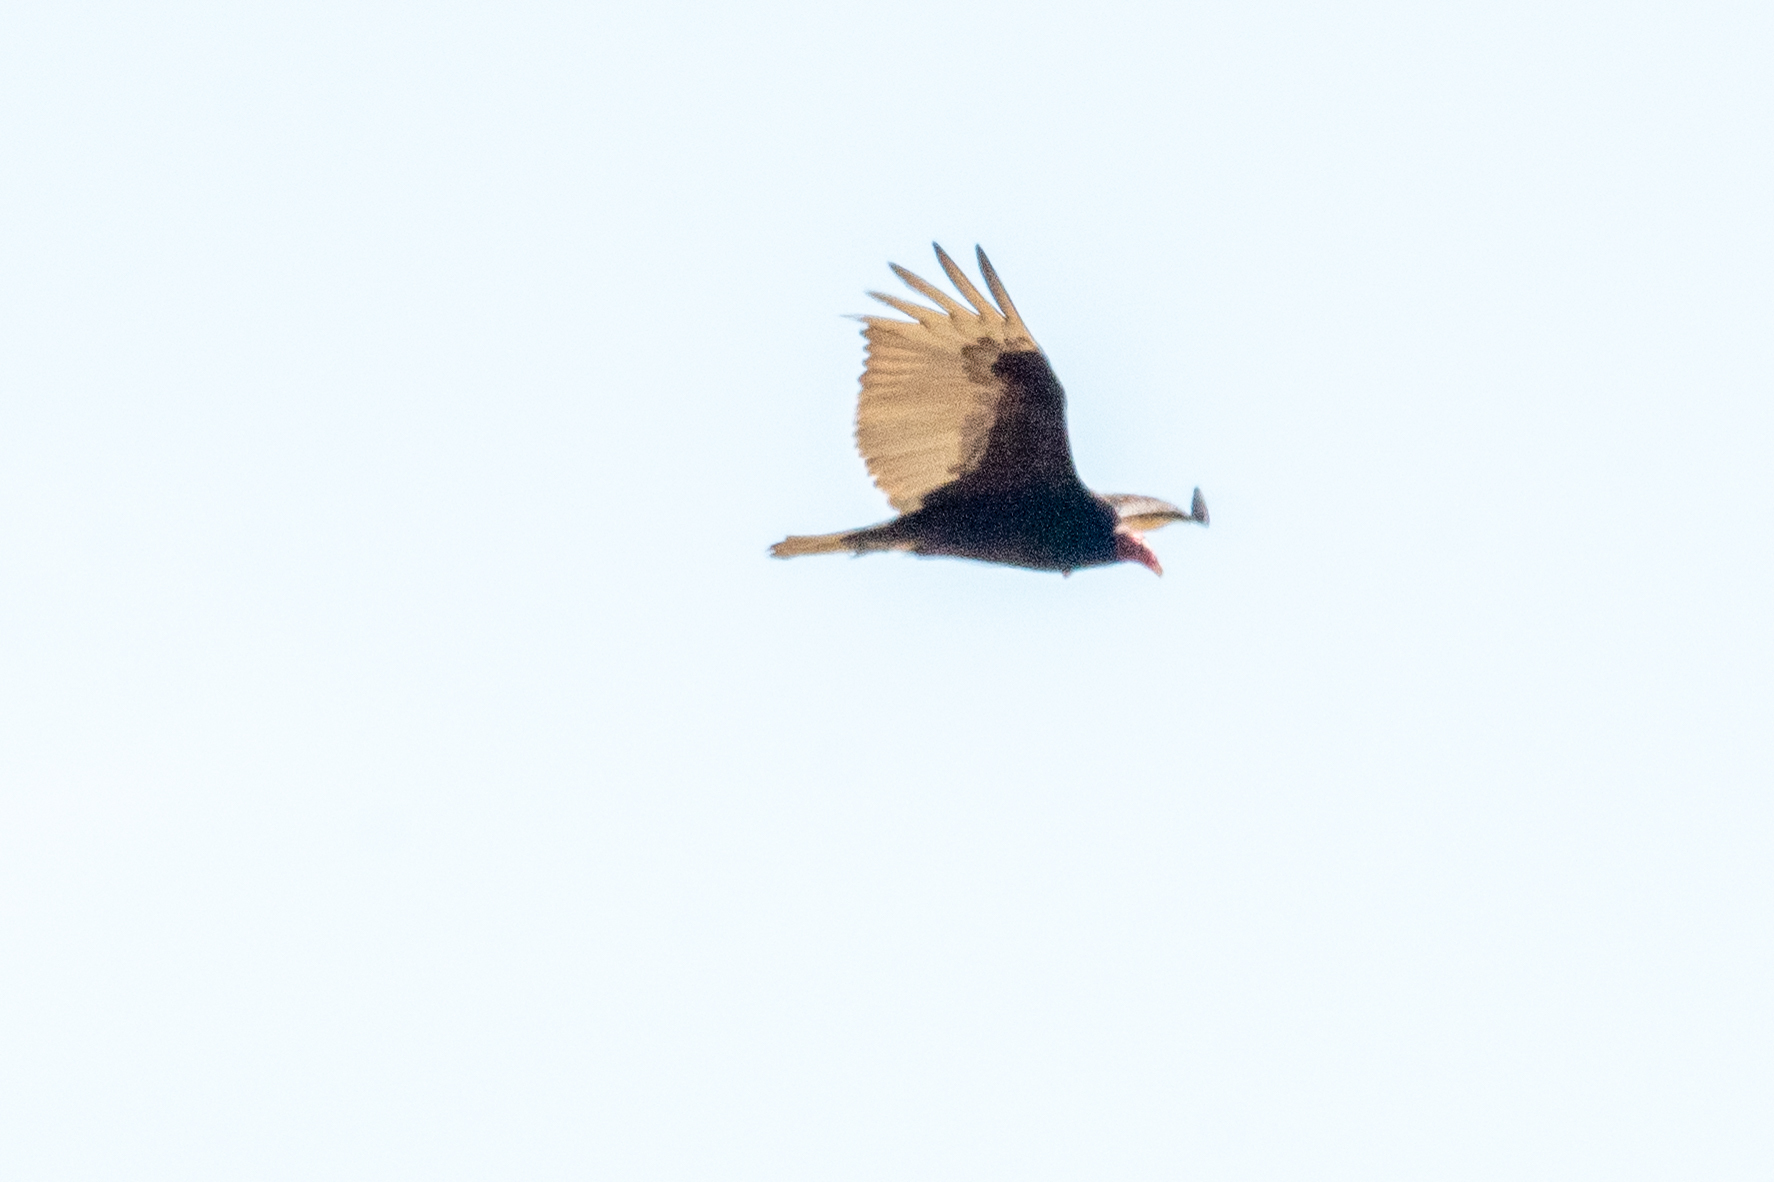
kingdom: Animalia
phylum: Chordata
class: Aves
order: Accipitriformes
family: Cathartidae
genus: Cathartes
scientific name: Cathartes aura
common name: Turkey vulture
